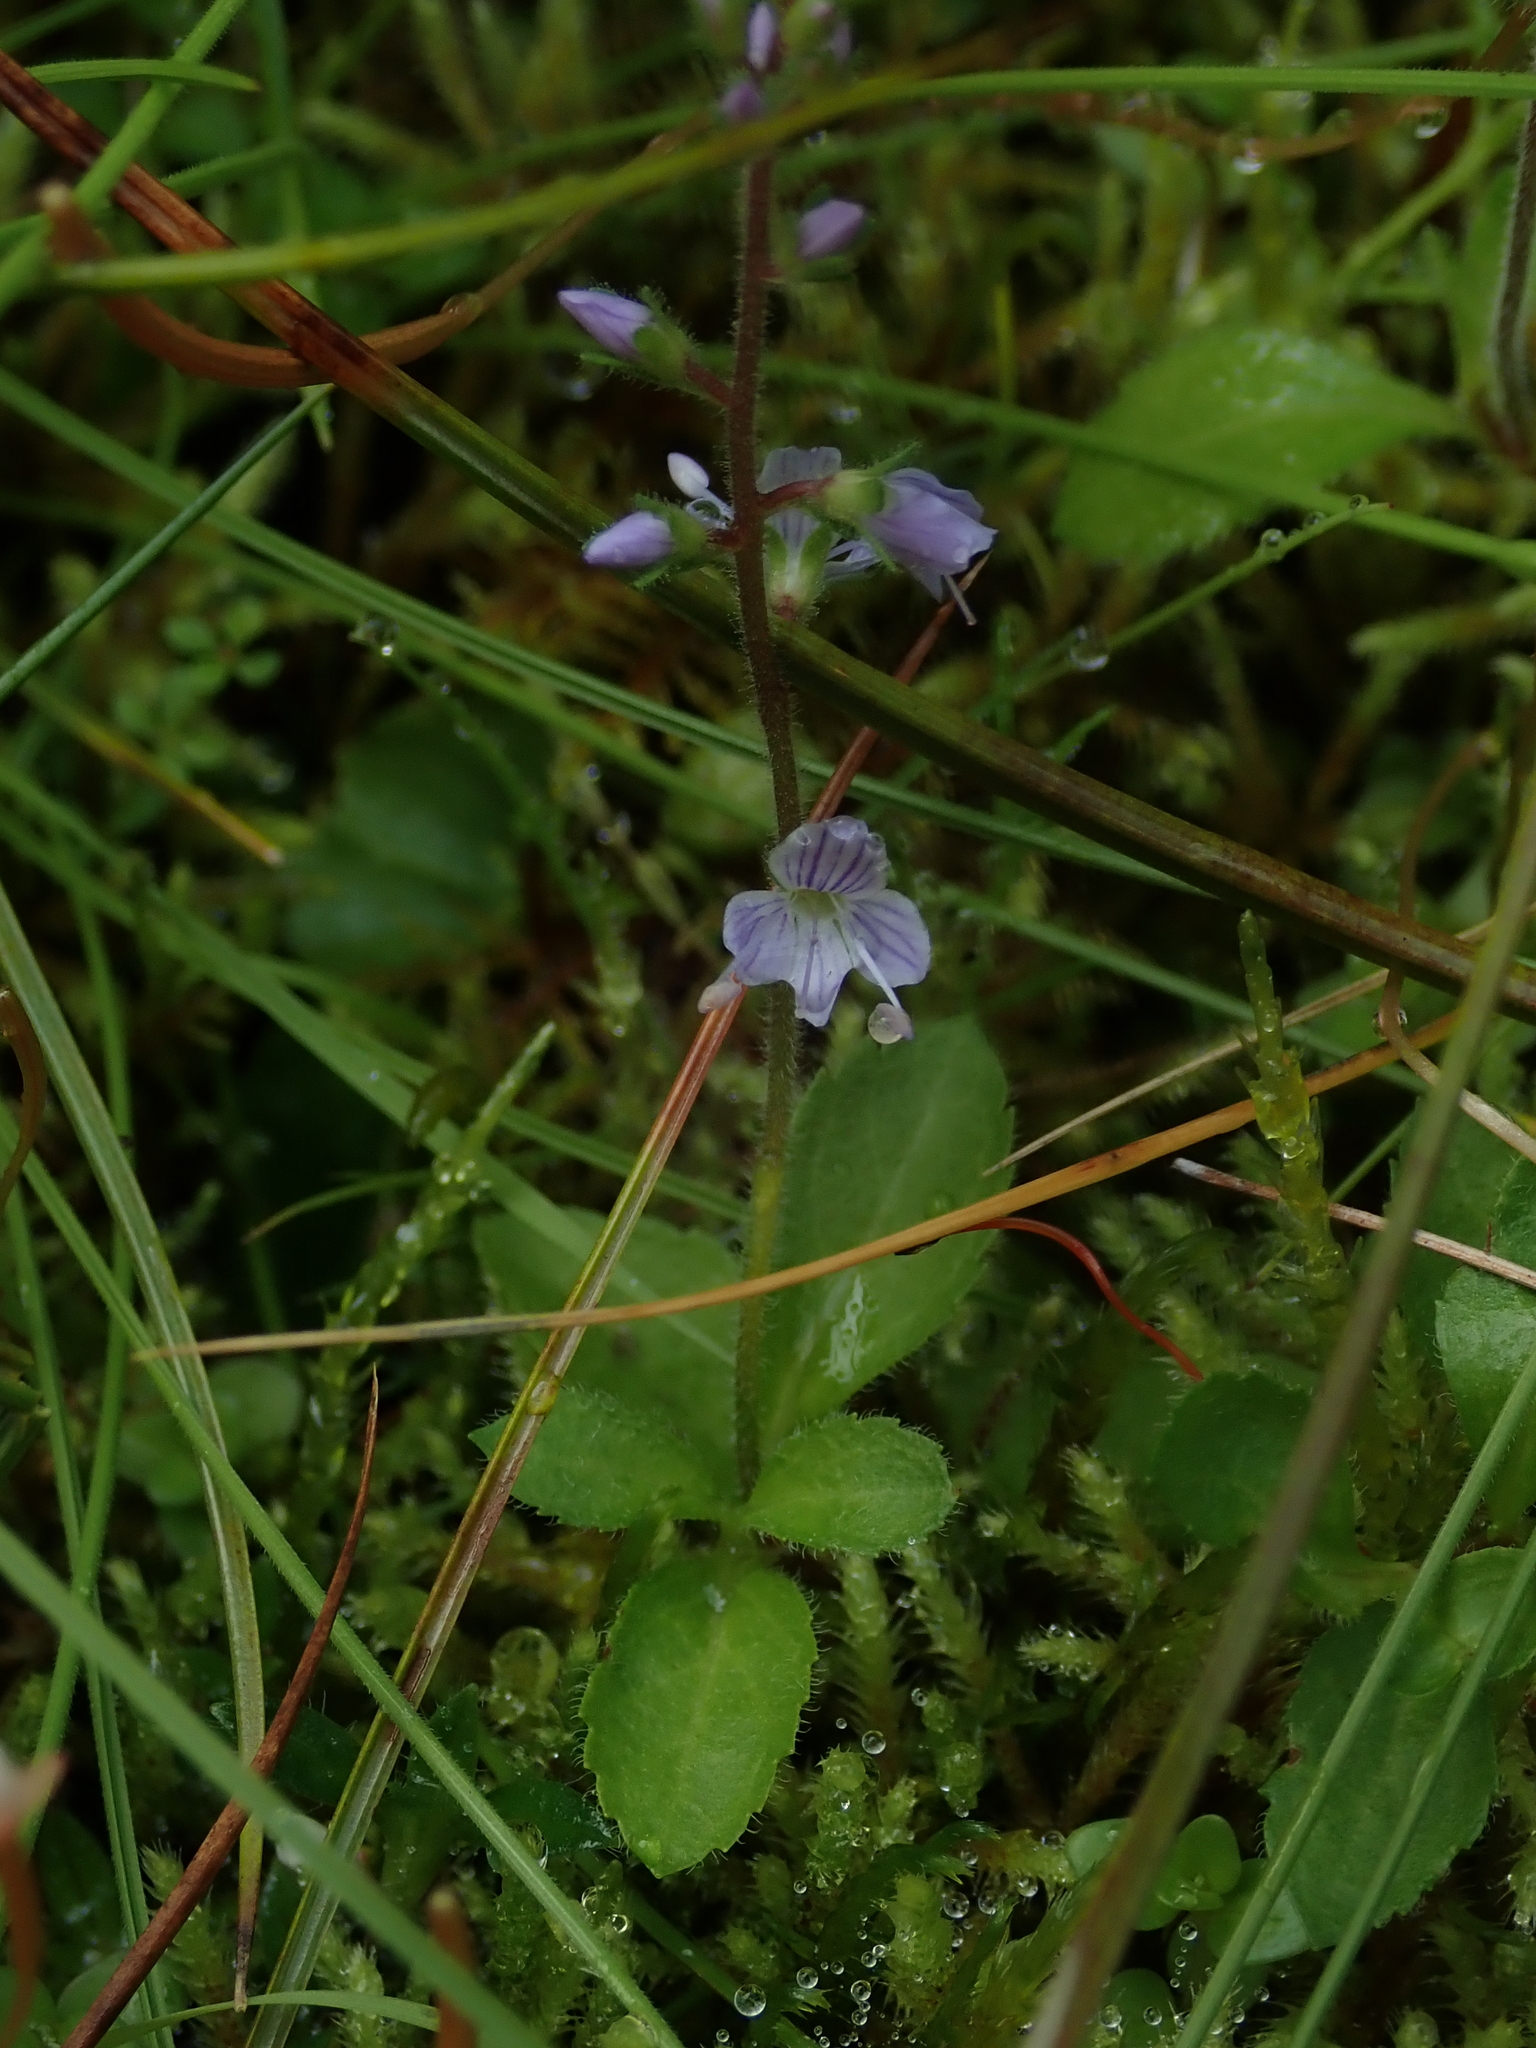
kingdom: Plantae
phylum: Tracheophyta
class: Magnoliopsida
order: Lamiales
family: Plantaginaceae
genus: Veronica
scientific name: Veronica officinalis
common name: Common speedwell
